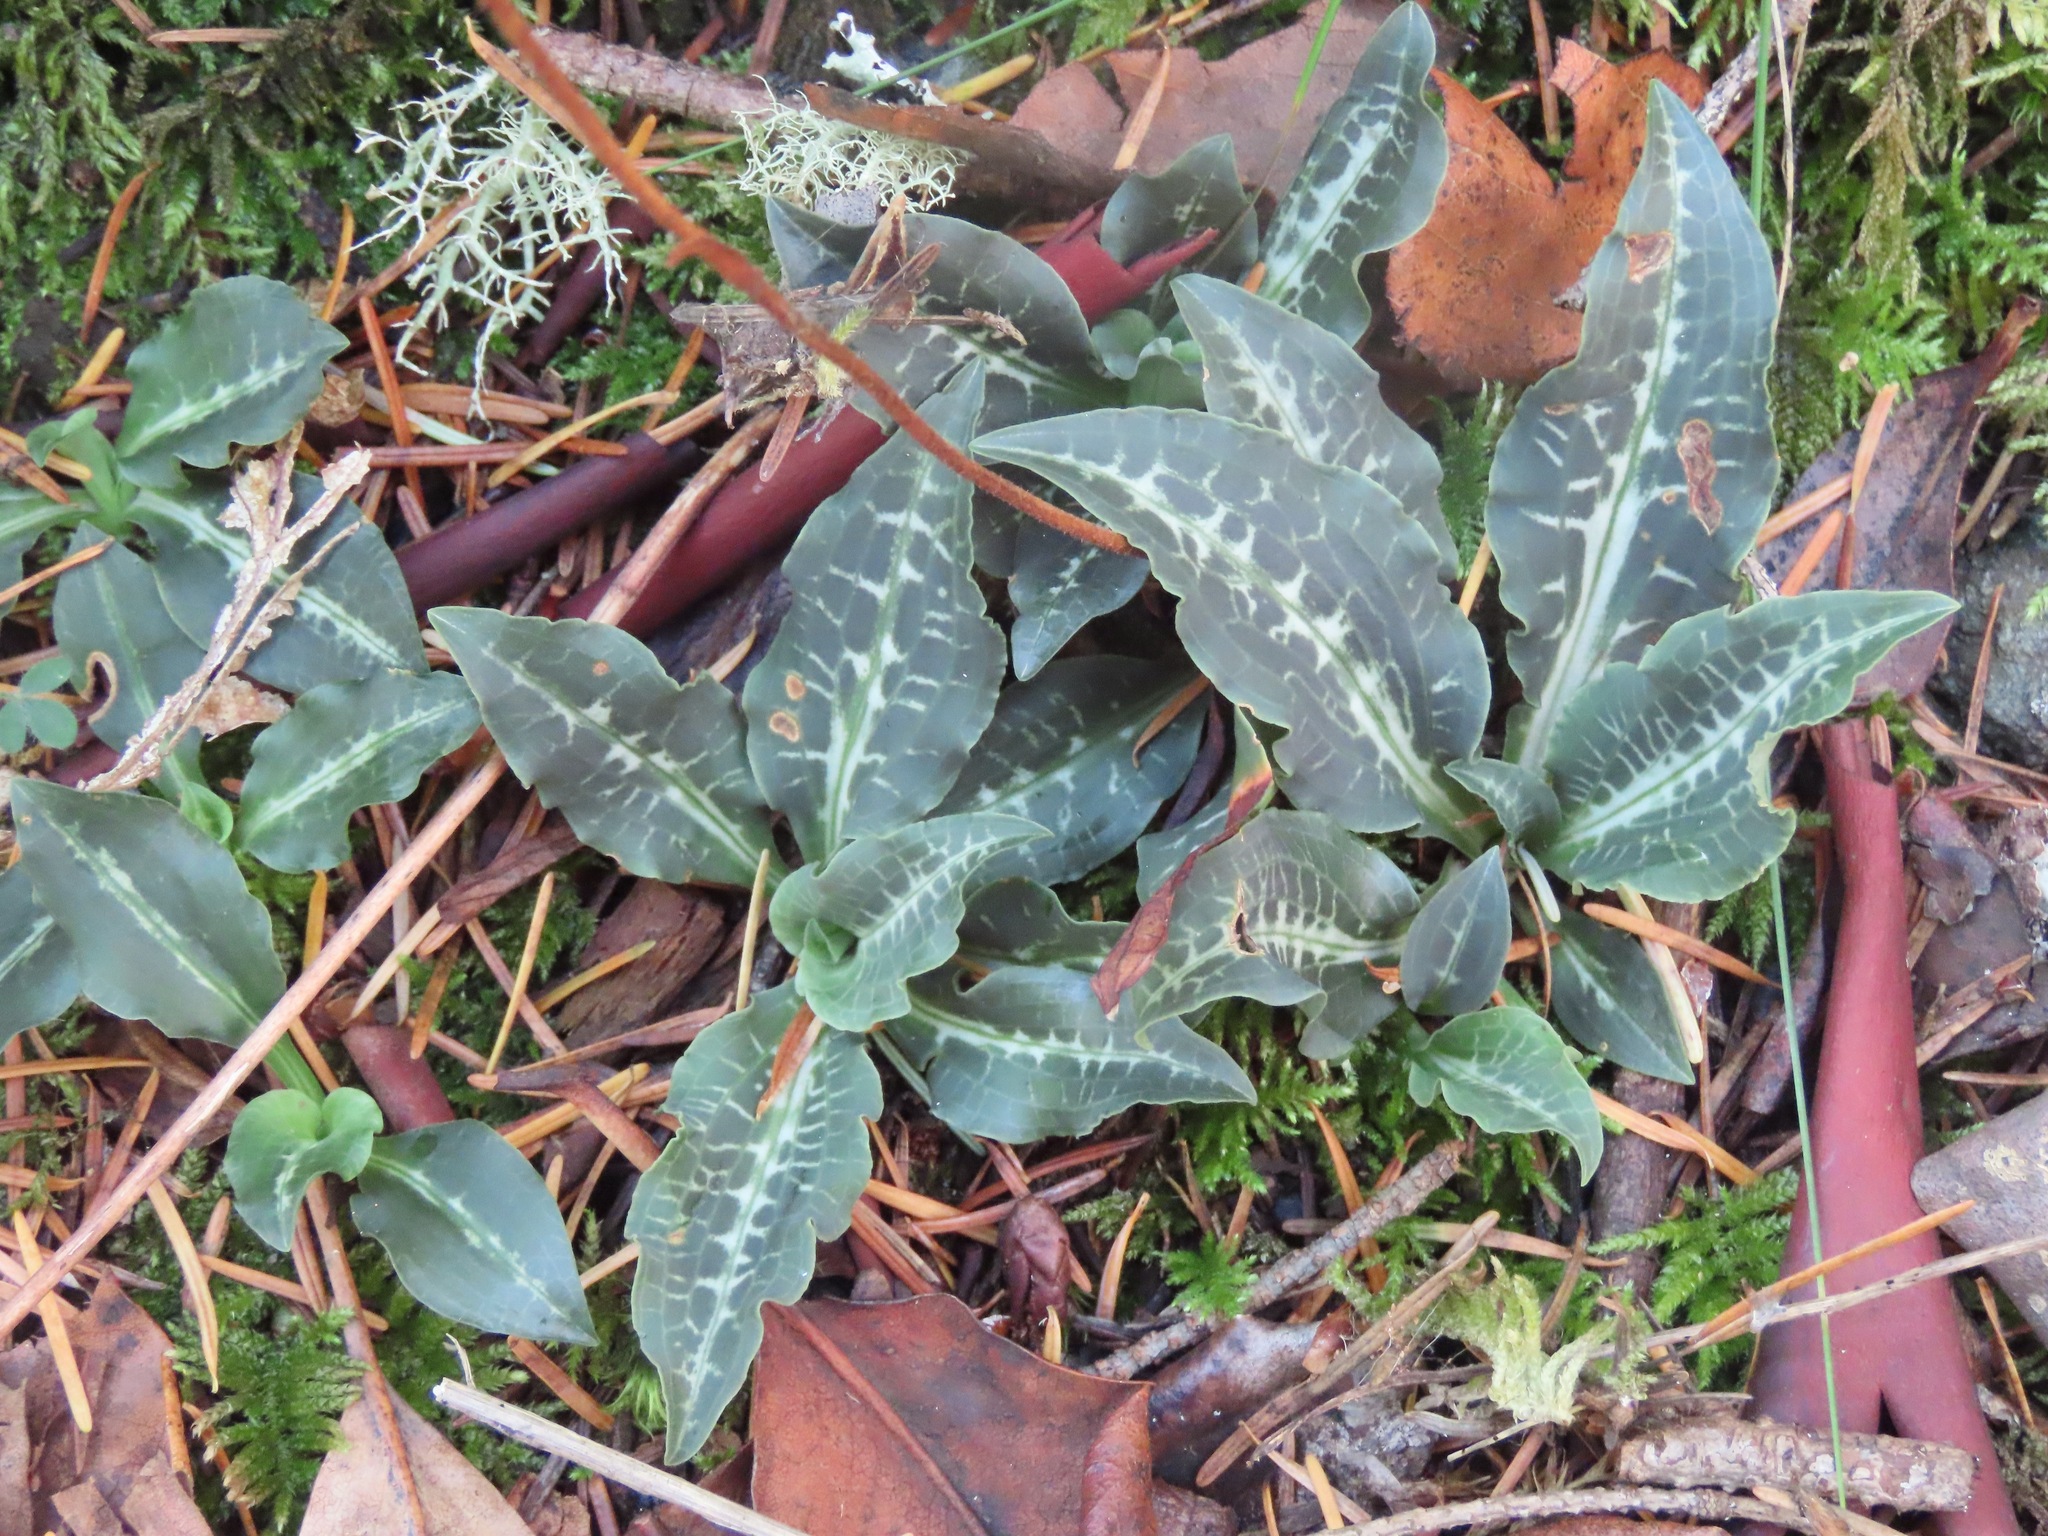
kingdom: Plantae
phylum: Tracheophyta
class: Liliopsida
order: Asparagales
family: Orchidaceae
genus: Goodyera
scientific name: Goodyera oblongifolia
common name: Giant rattlesnake-plantain
